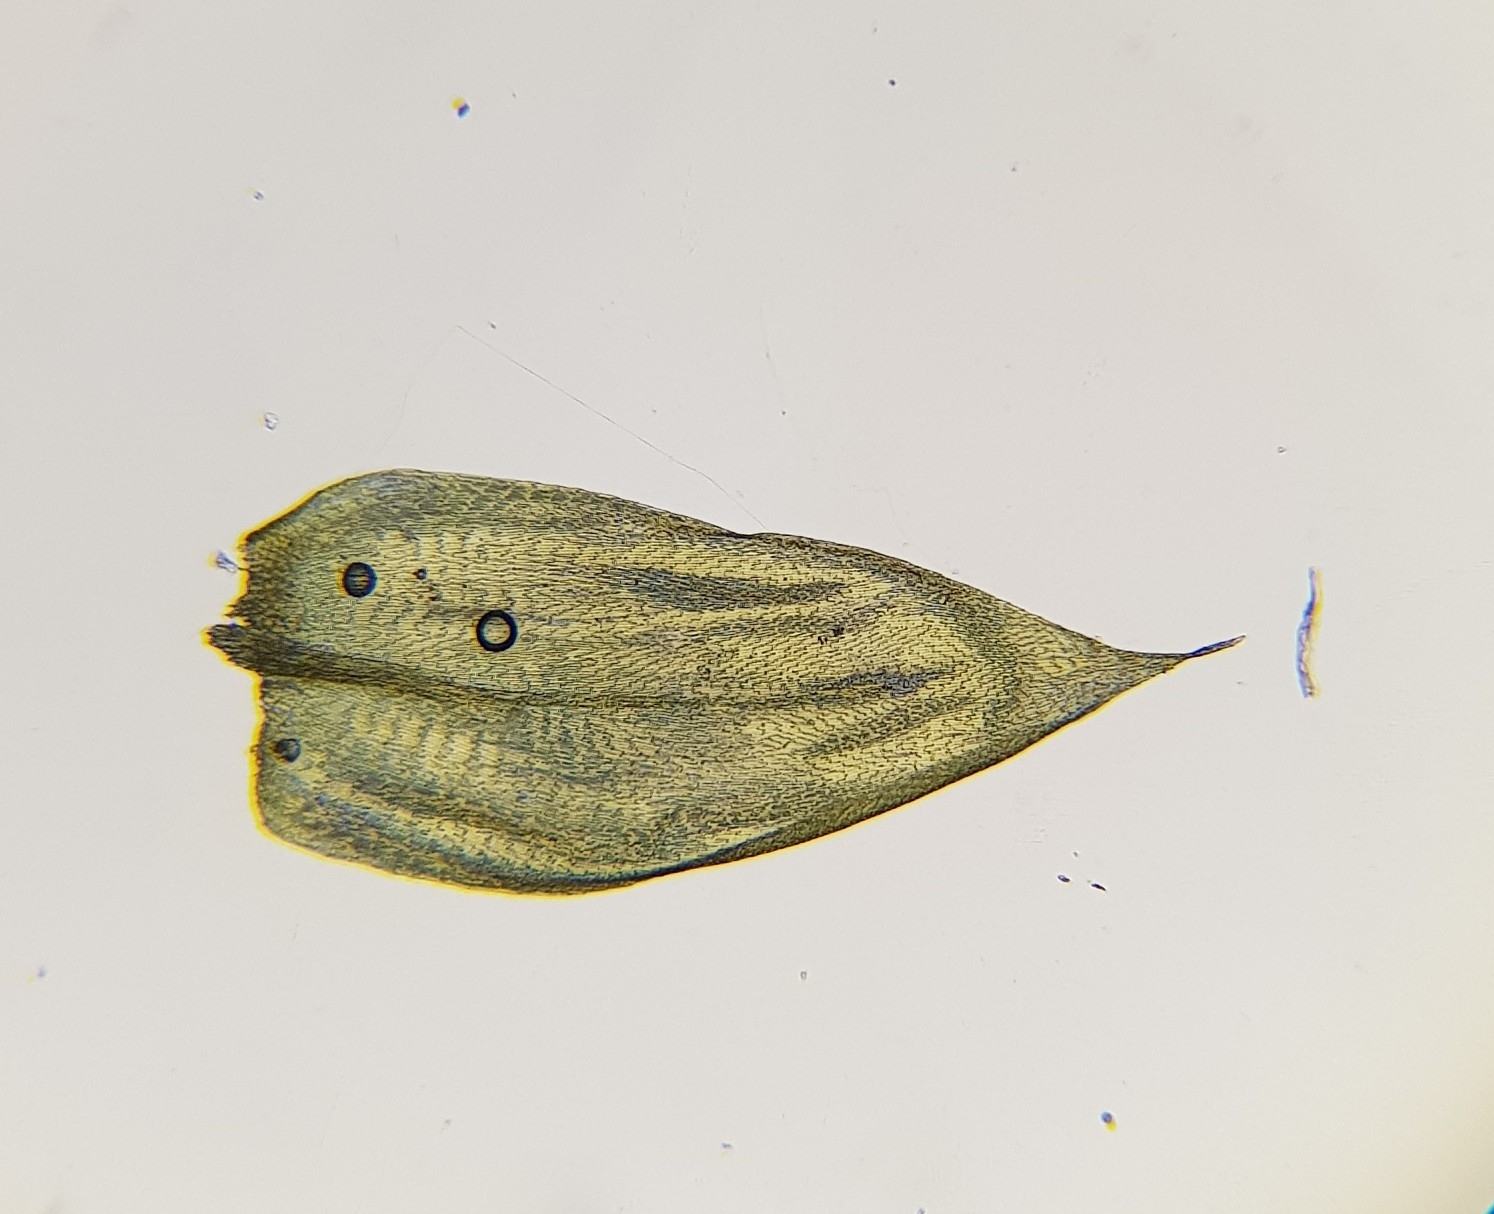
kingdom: Plantae
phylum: Bryophyta
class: Bryopsida
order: Hypnales
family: Brachytheciaceae
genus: Sciuro-hypnum
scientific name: Sciuro-hypnum plumosum
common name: Rusty feather-moss
